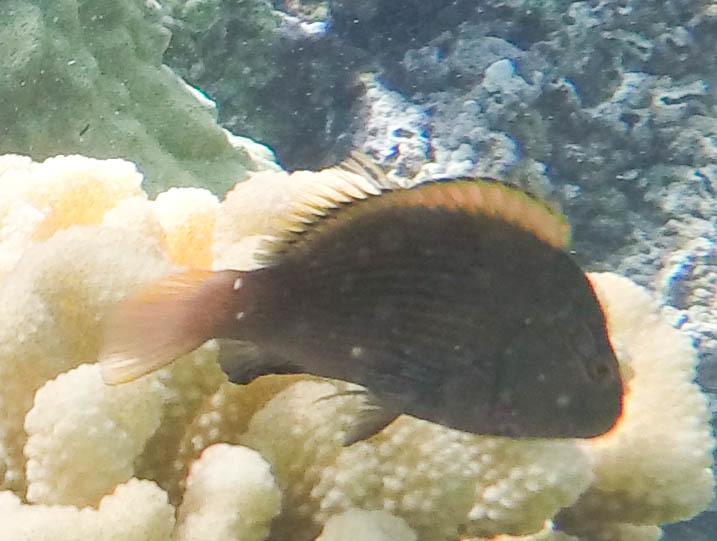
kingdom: Animalia
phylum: Chordata
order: Perciformes
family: Cirrhitidae
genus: Paracirrhites
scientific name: Paracirrhites arcatus
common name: Arc-eye hawkfish
